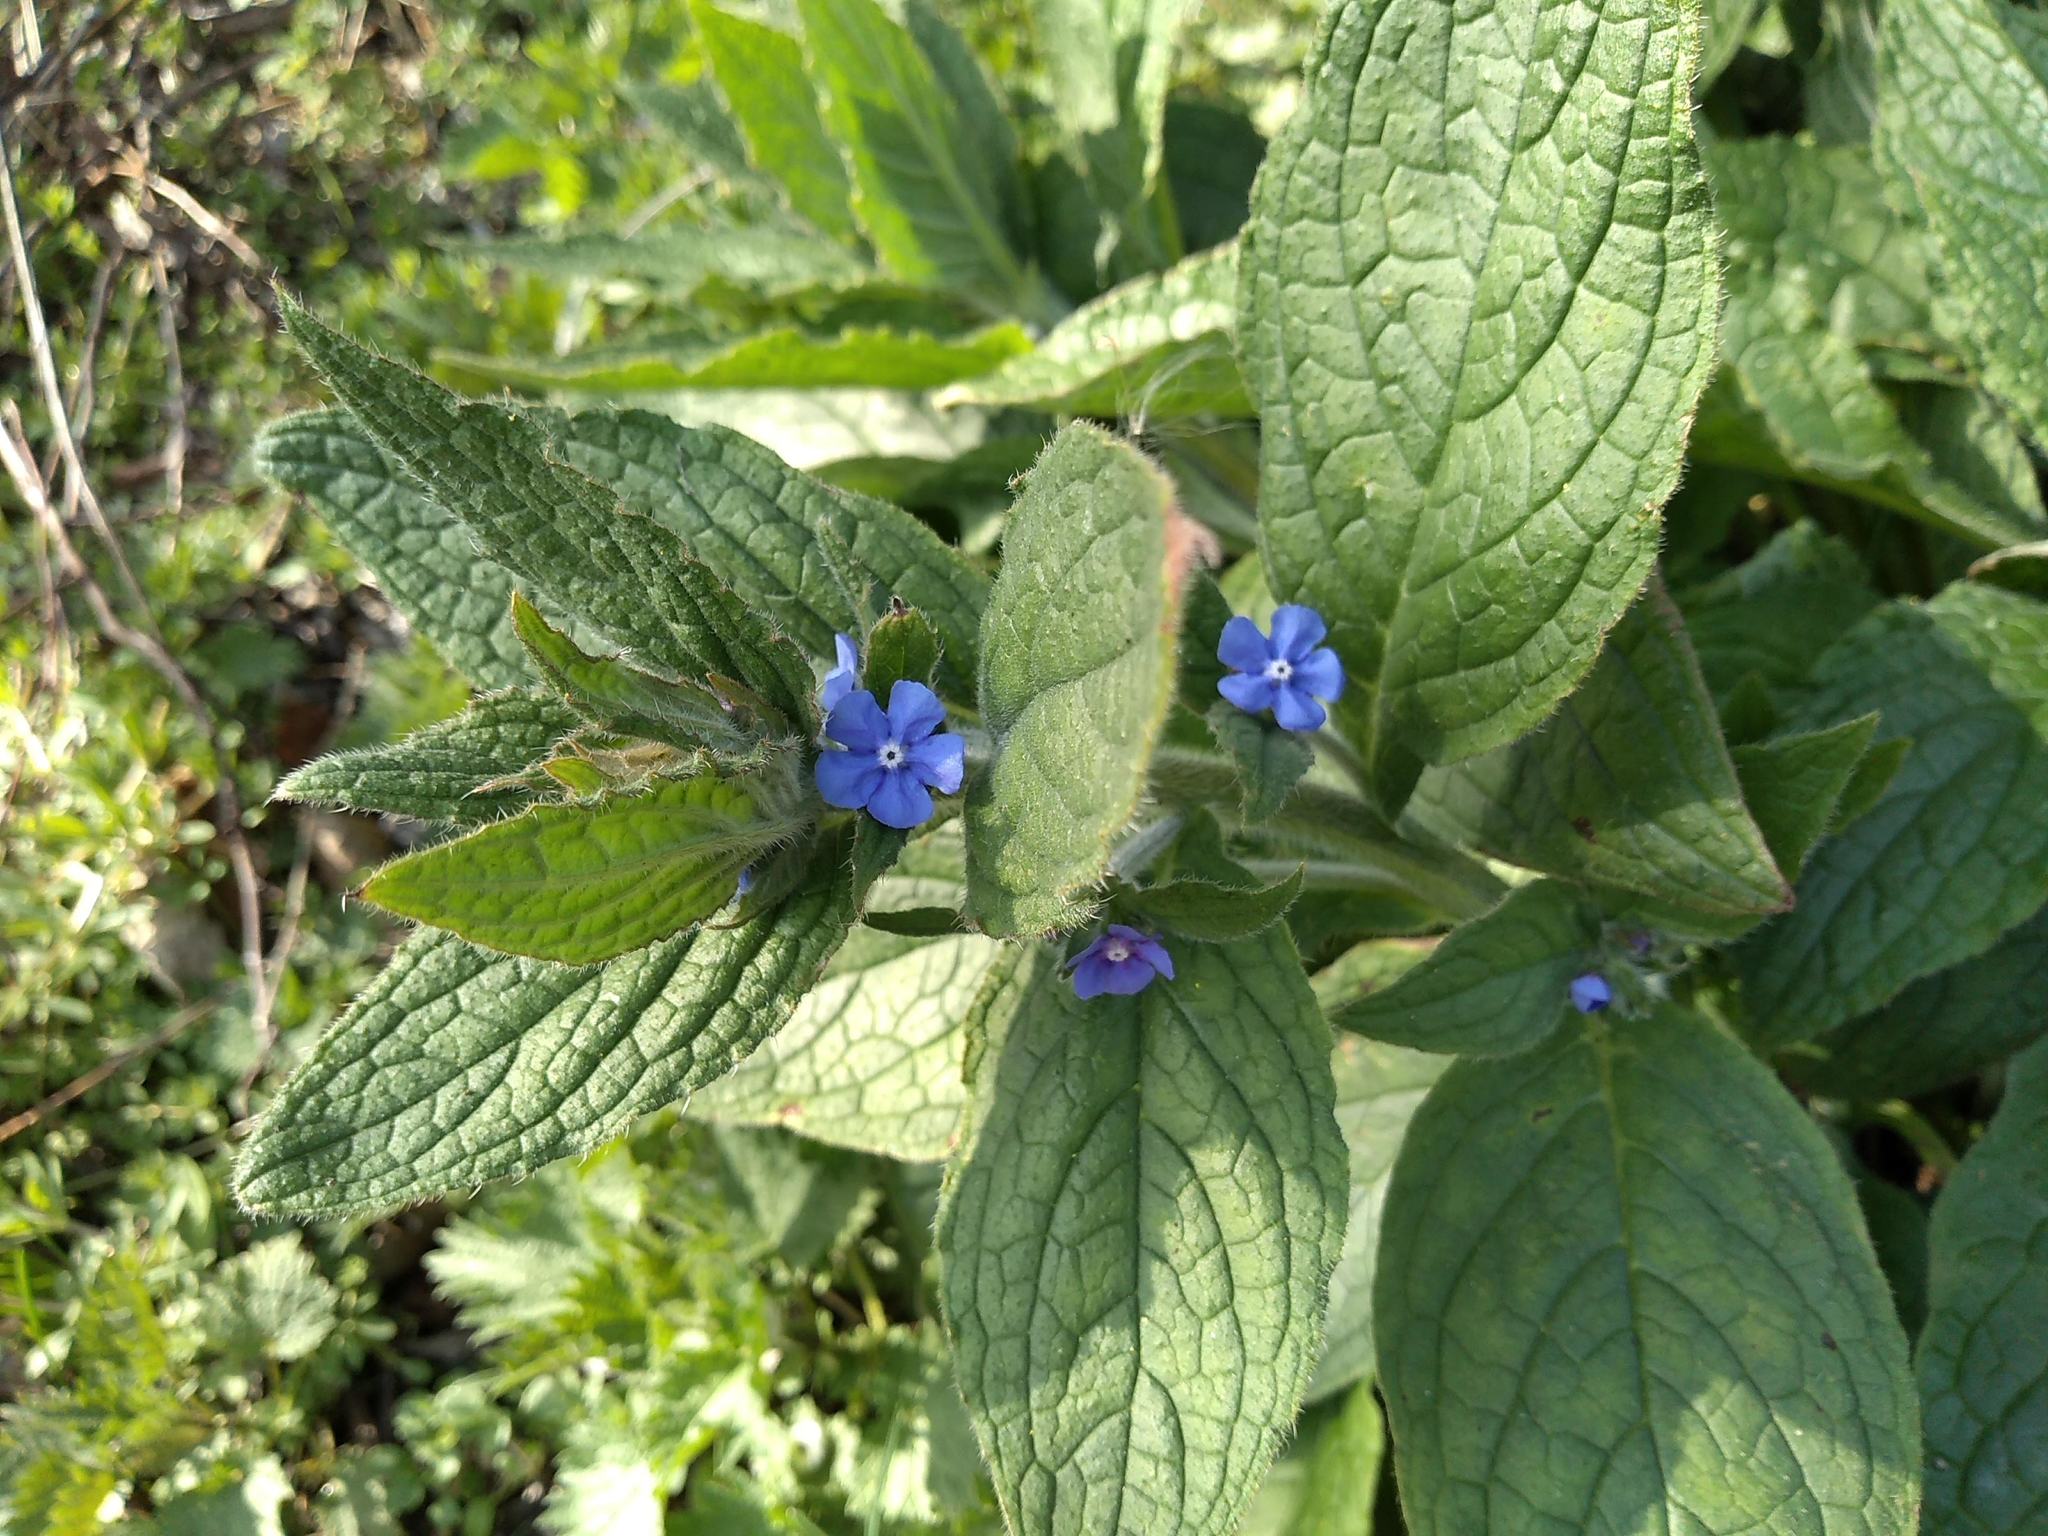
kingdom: Plantae
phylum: Tracheophyta
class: Magnoliopsida
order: Boraginales
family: Boraginaceae
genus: Pentaglottis
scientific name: Pentaglottis sempervirens
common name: Green alkanet
